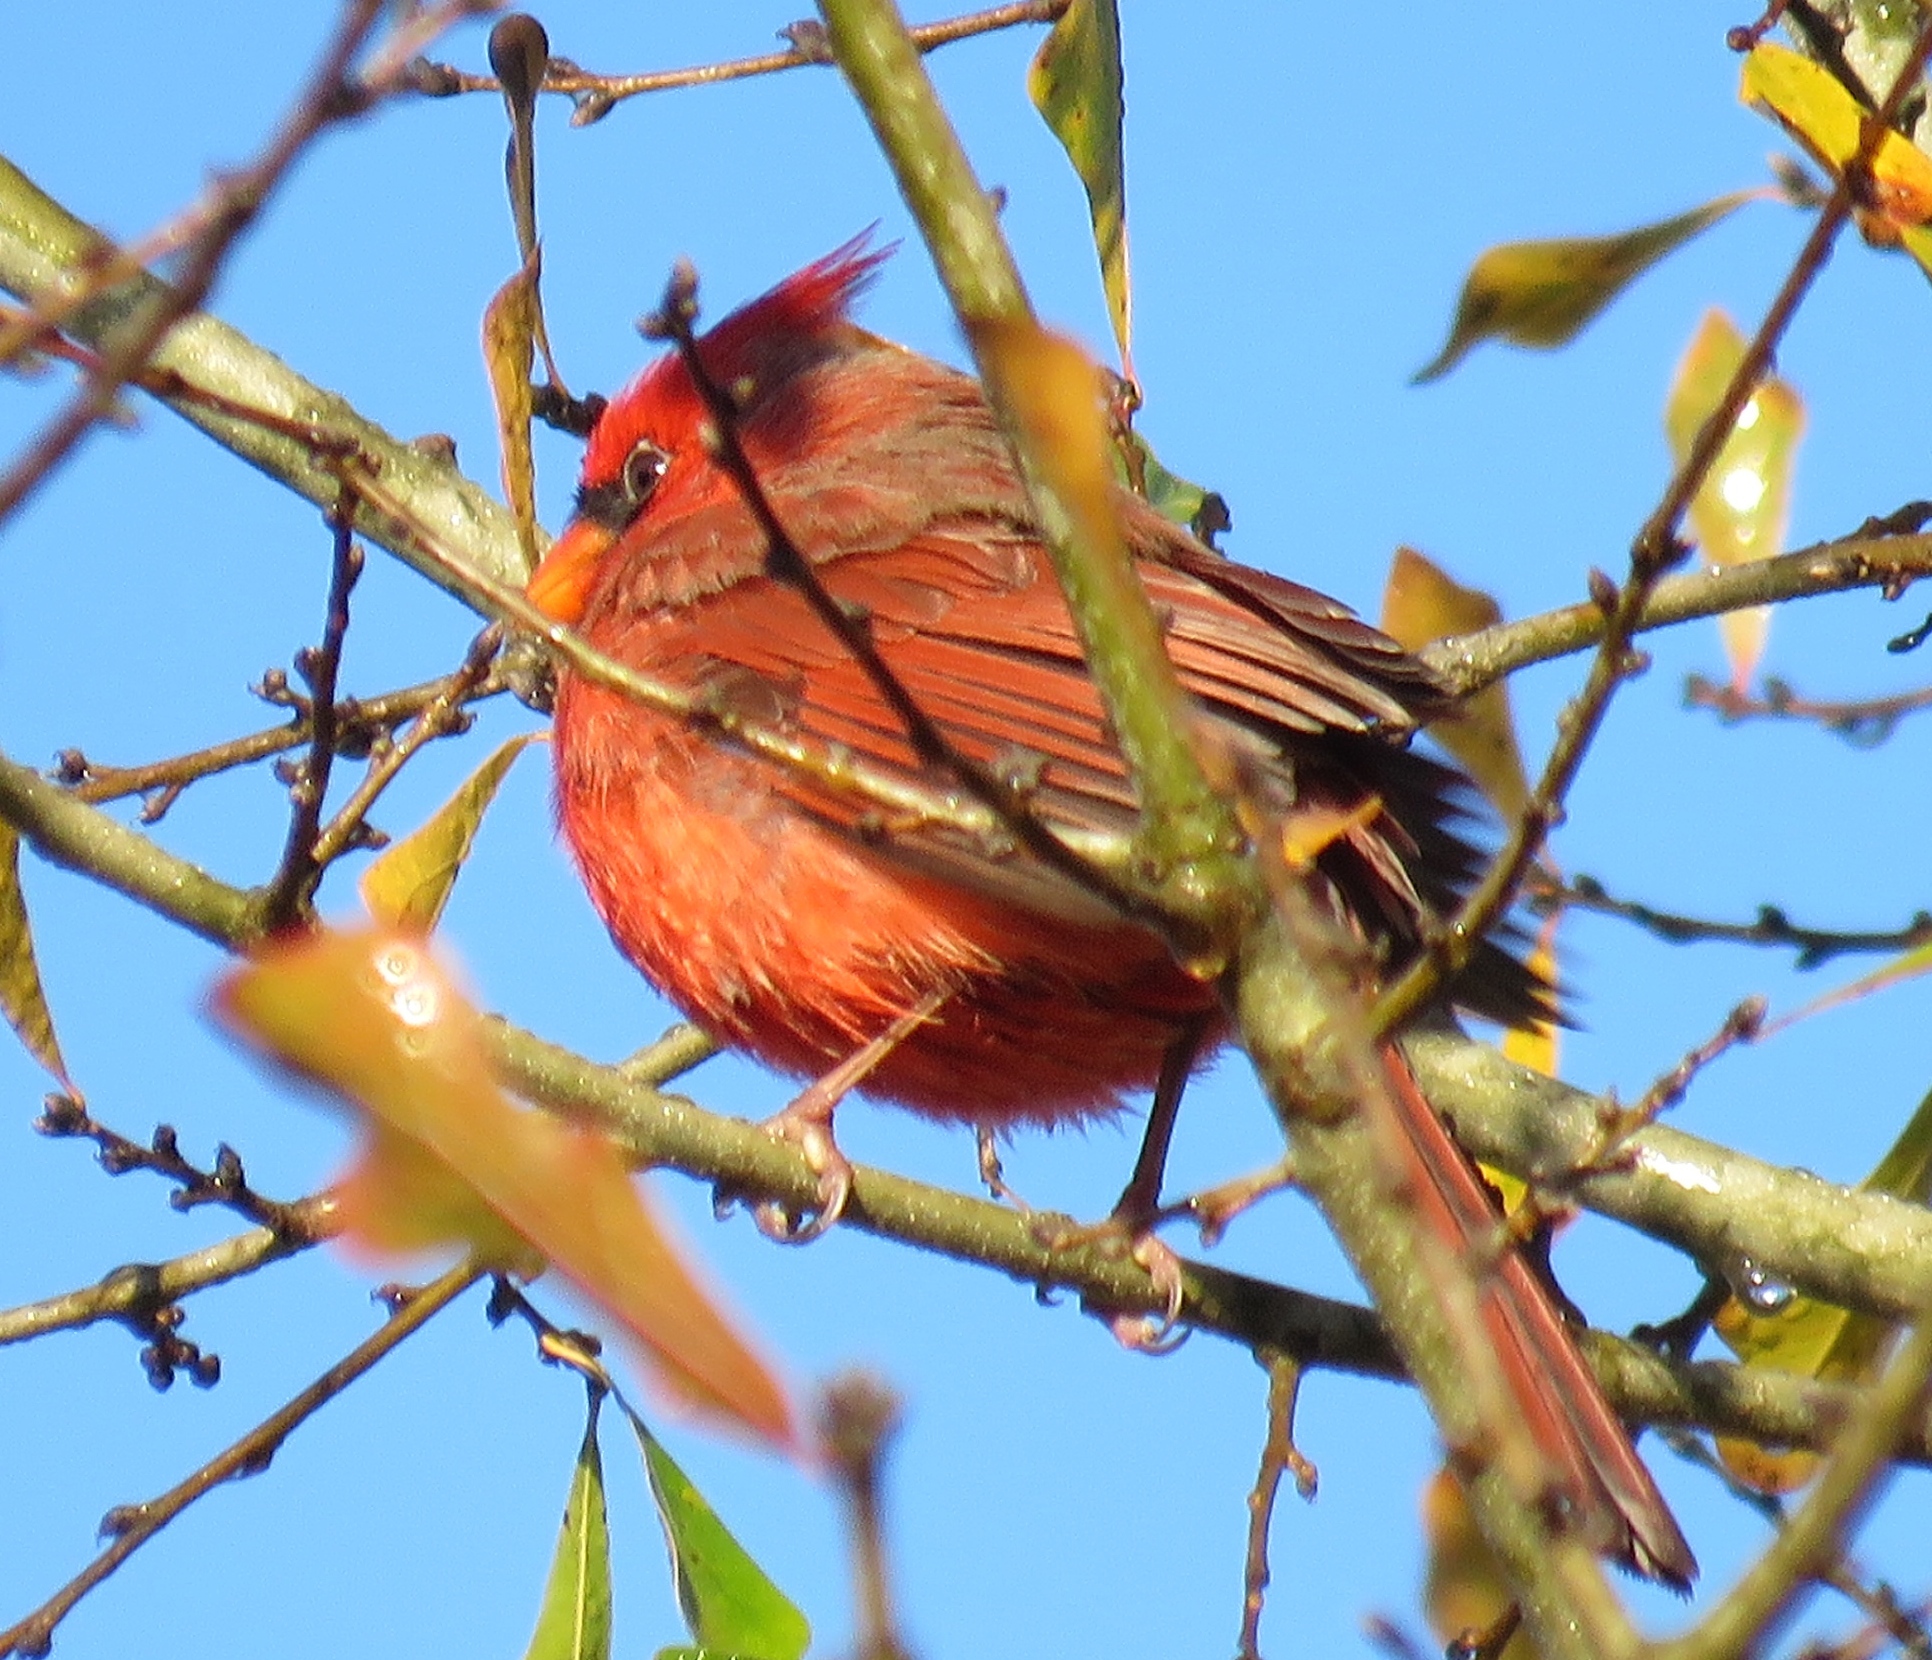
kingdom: Animalia
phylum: Chordata
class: Aves
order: Passeriformes
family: Cardinalidae
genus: Cardinalis
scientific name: Cardinalis cardinalis
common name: Northern cardinal
